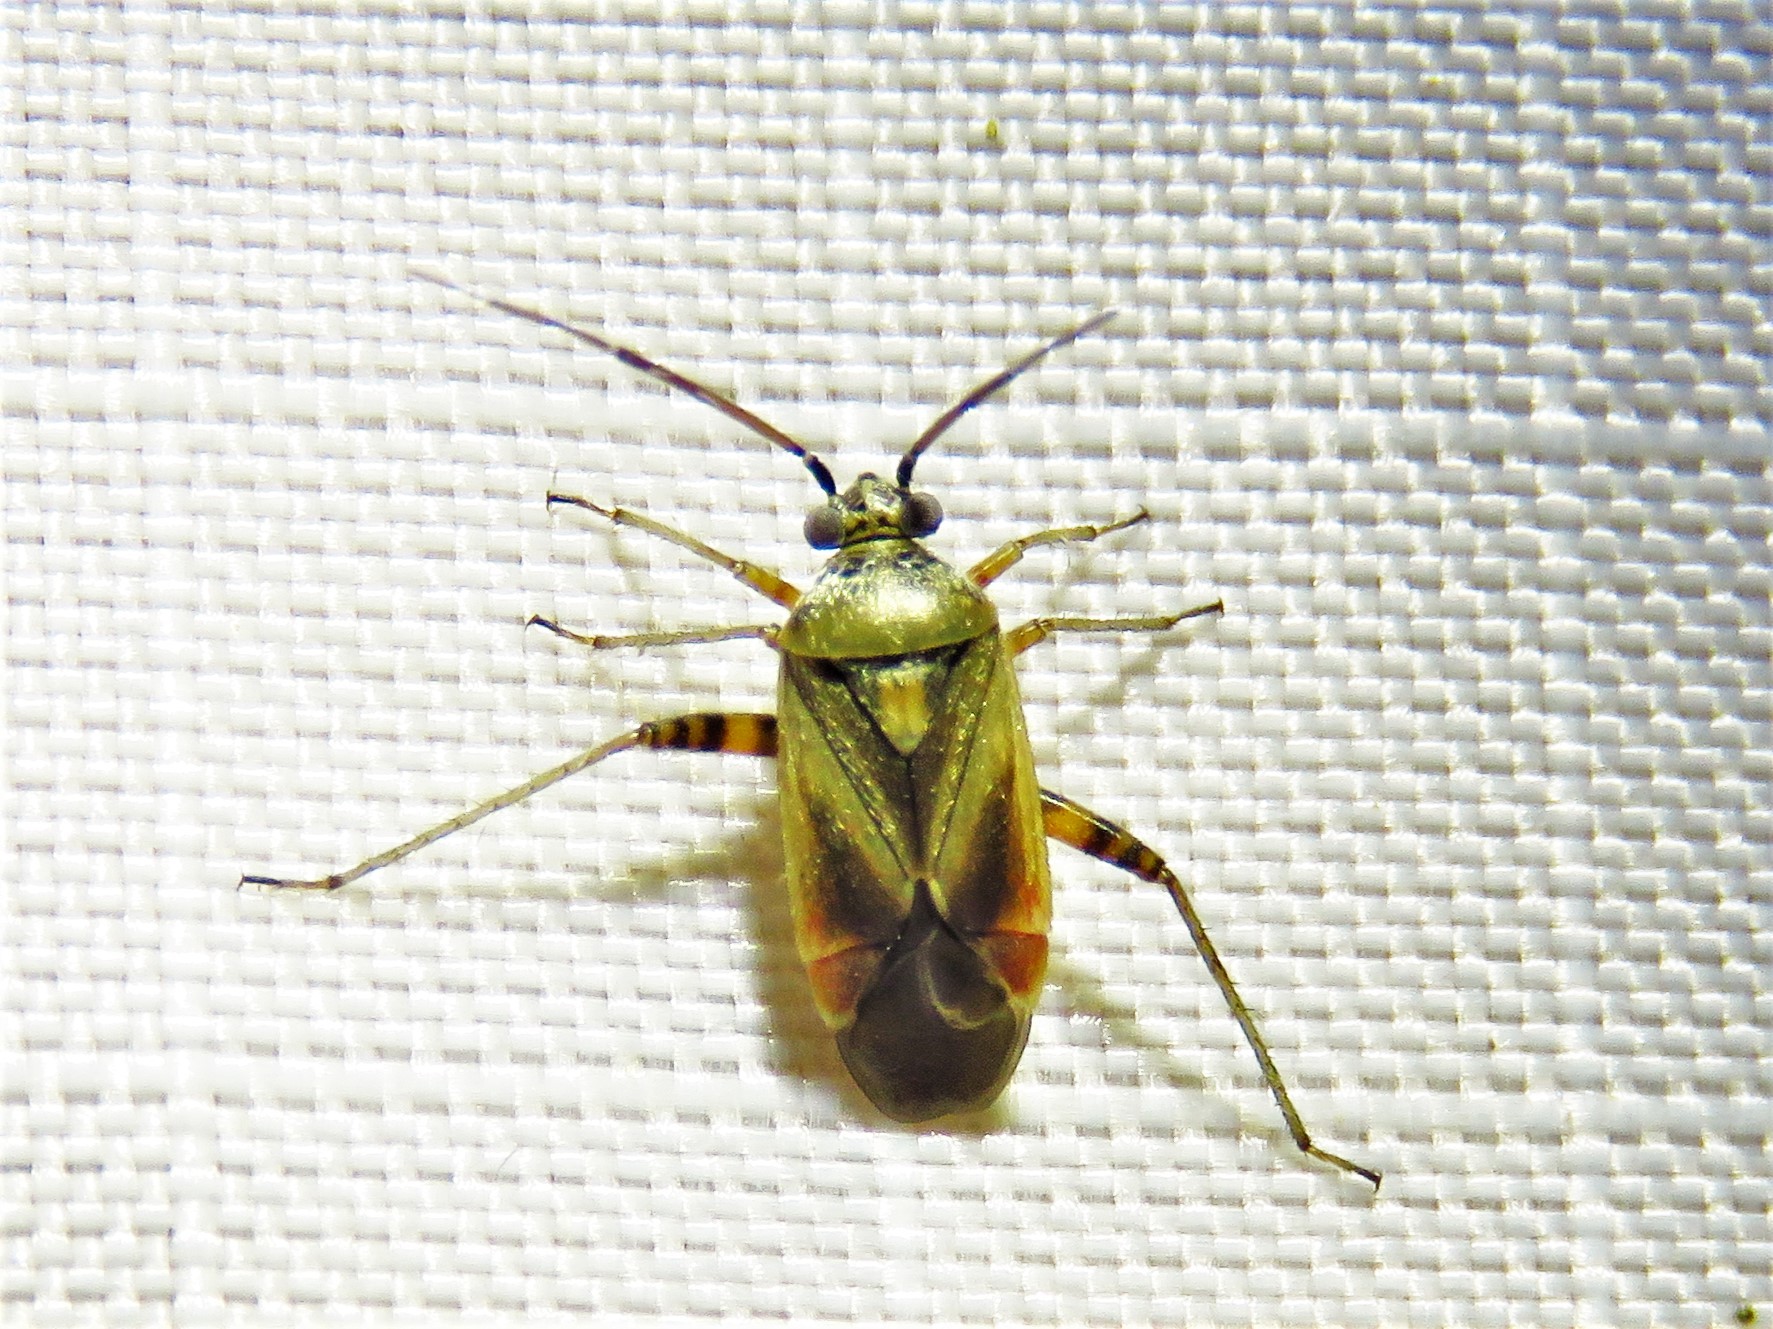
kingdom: Animalia
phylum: Arthropoda
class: Insecta
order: Hemiptera
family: Miridae
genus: Polymerus
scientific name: Polymerus basalis
